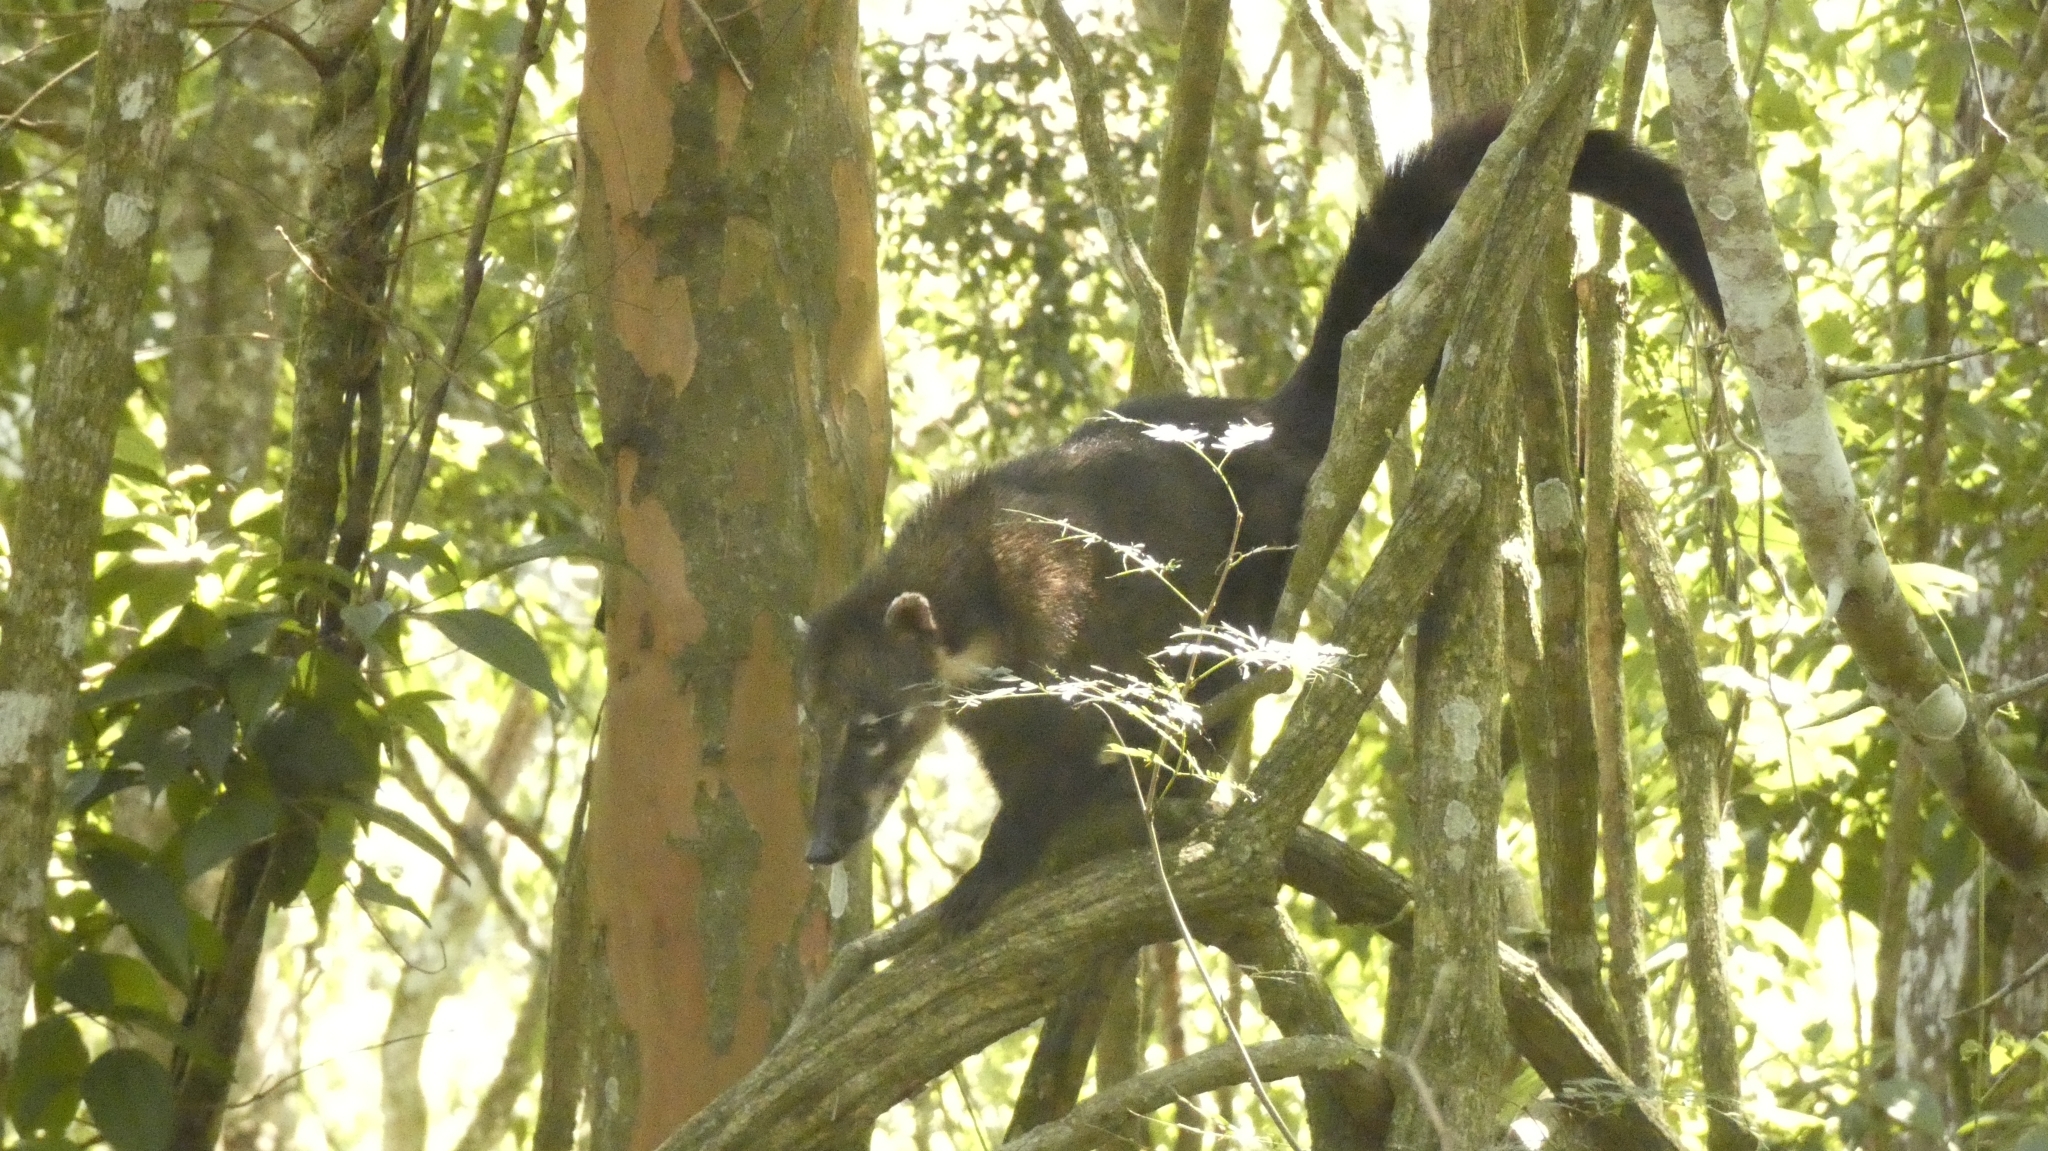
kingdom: Animalia
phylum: Chordata
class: Mammalia
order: Carnivora
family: Procyonidae
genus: Nasua
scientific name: Nasua nasua
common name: South american coati
